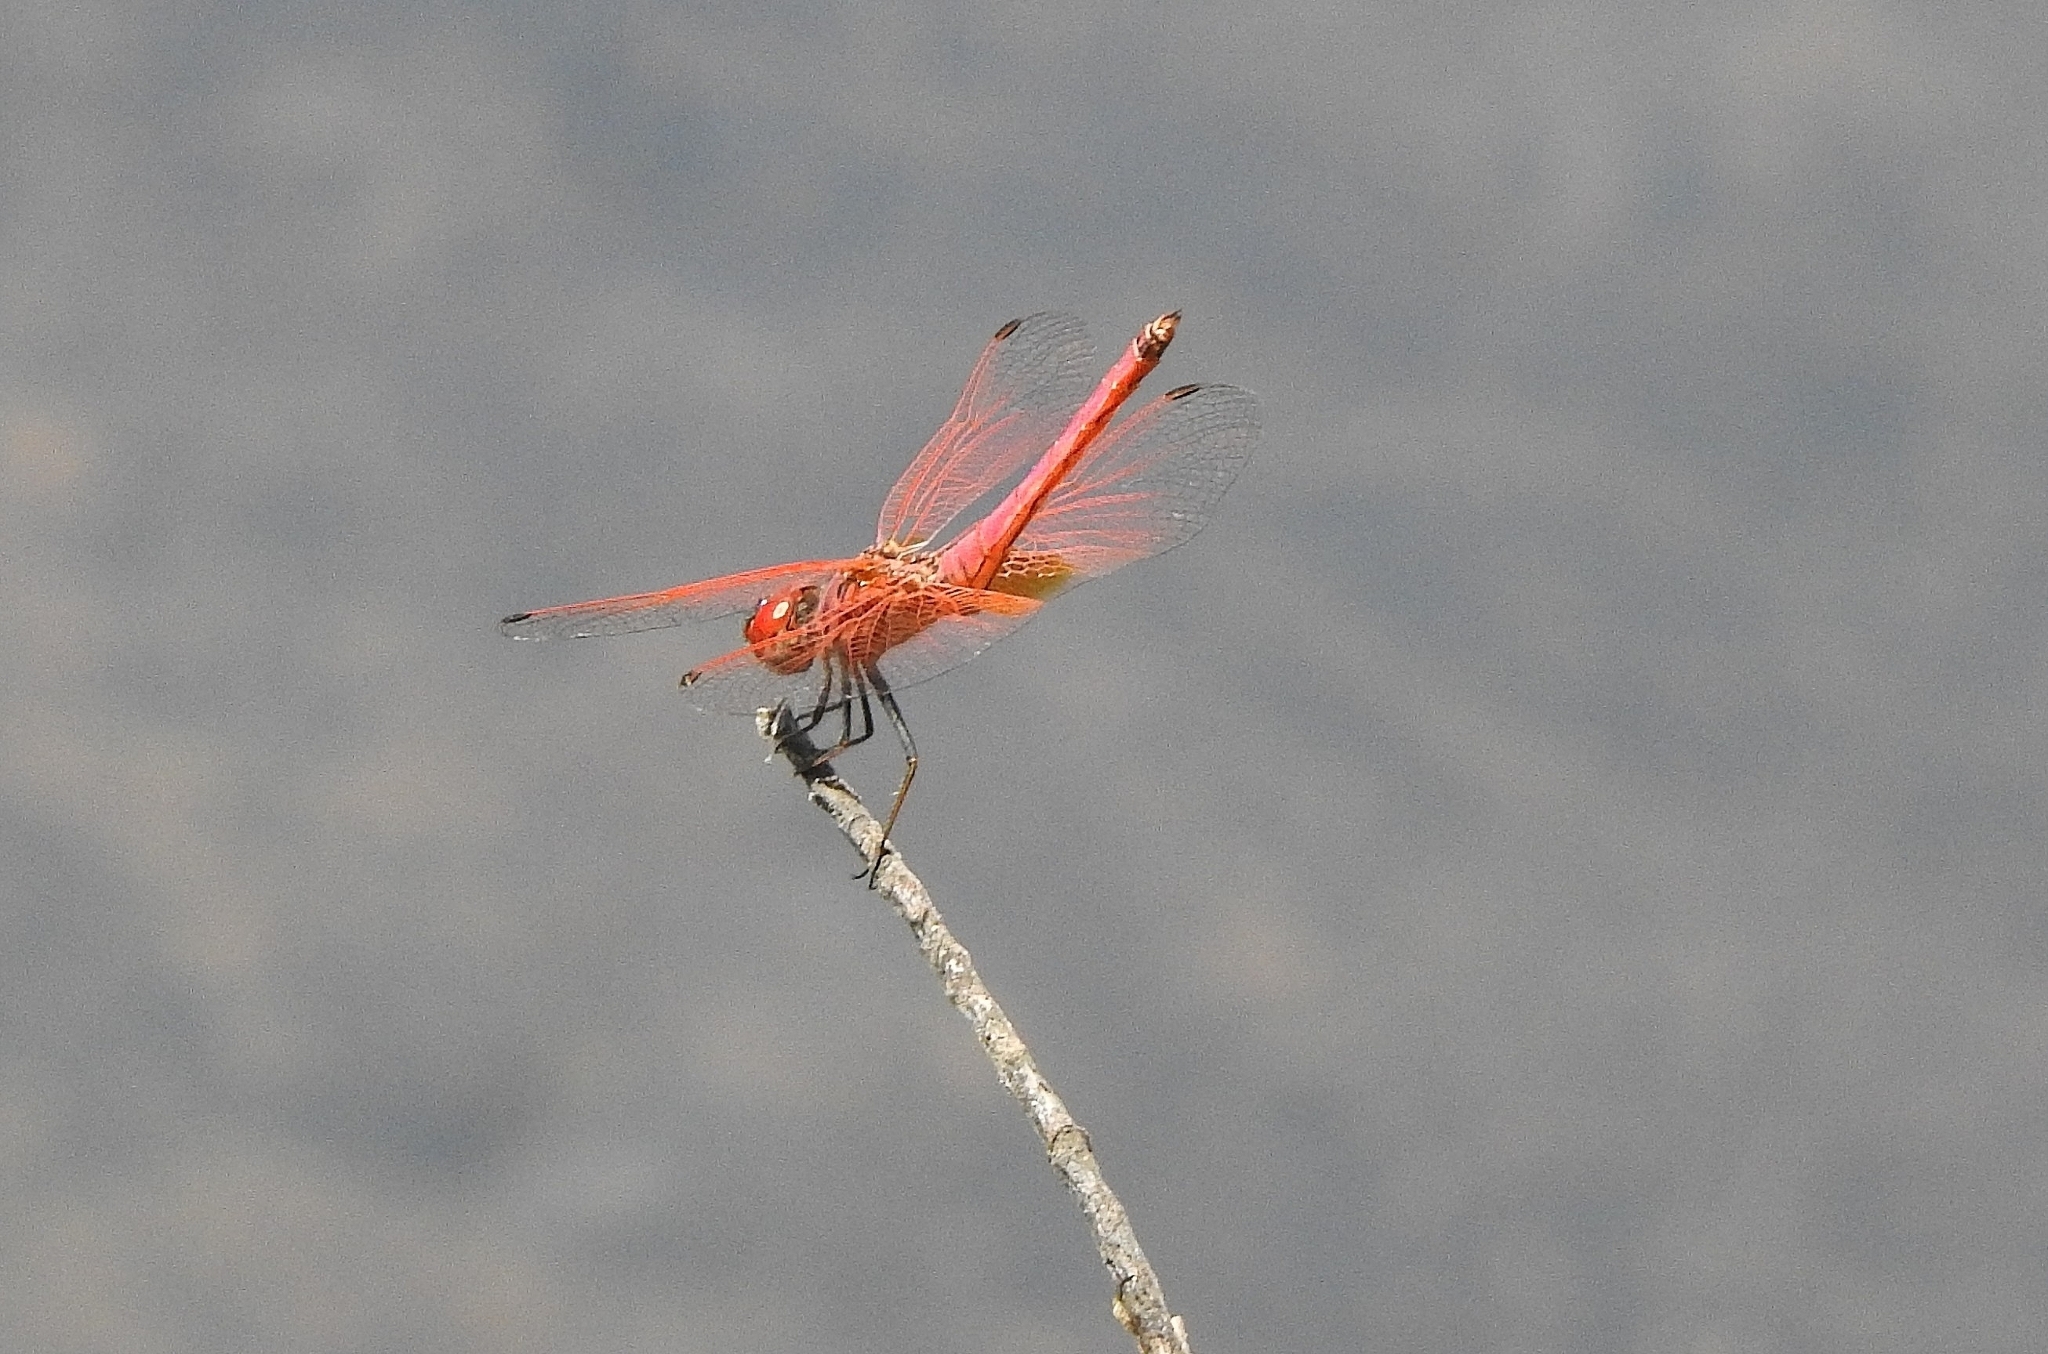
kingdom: Animalia
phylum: Arthropoda
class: Insecta
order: Odonata
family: Libellulidae
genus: Trithemis
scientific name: Trithemis aurora
